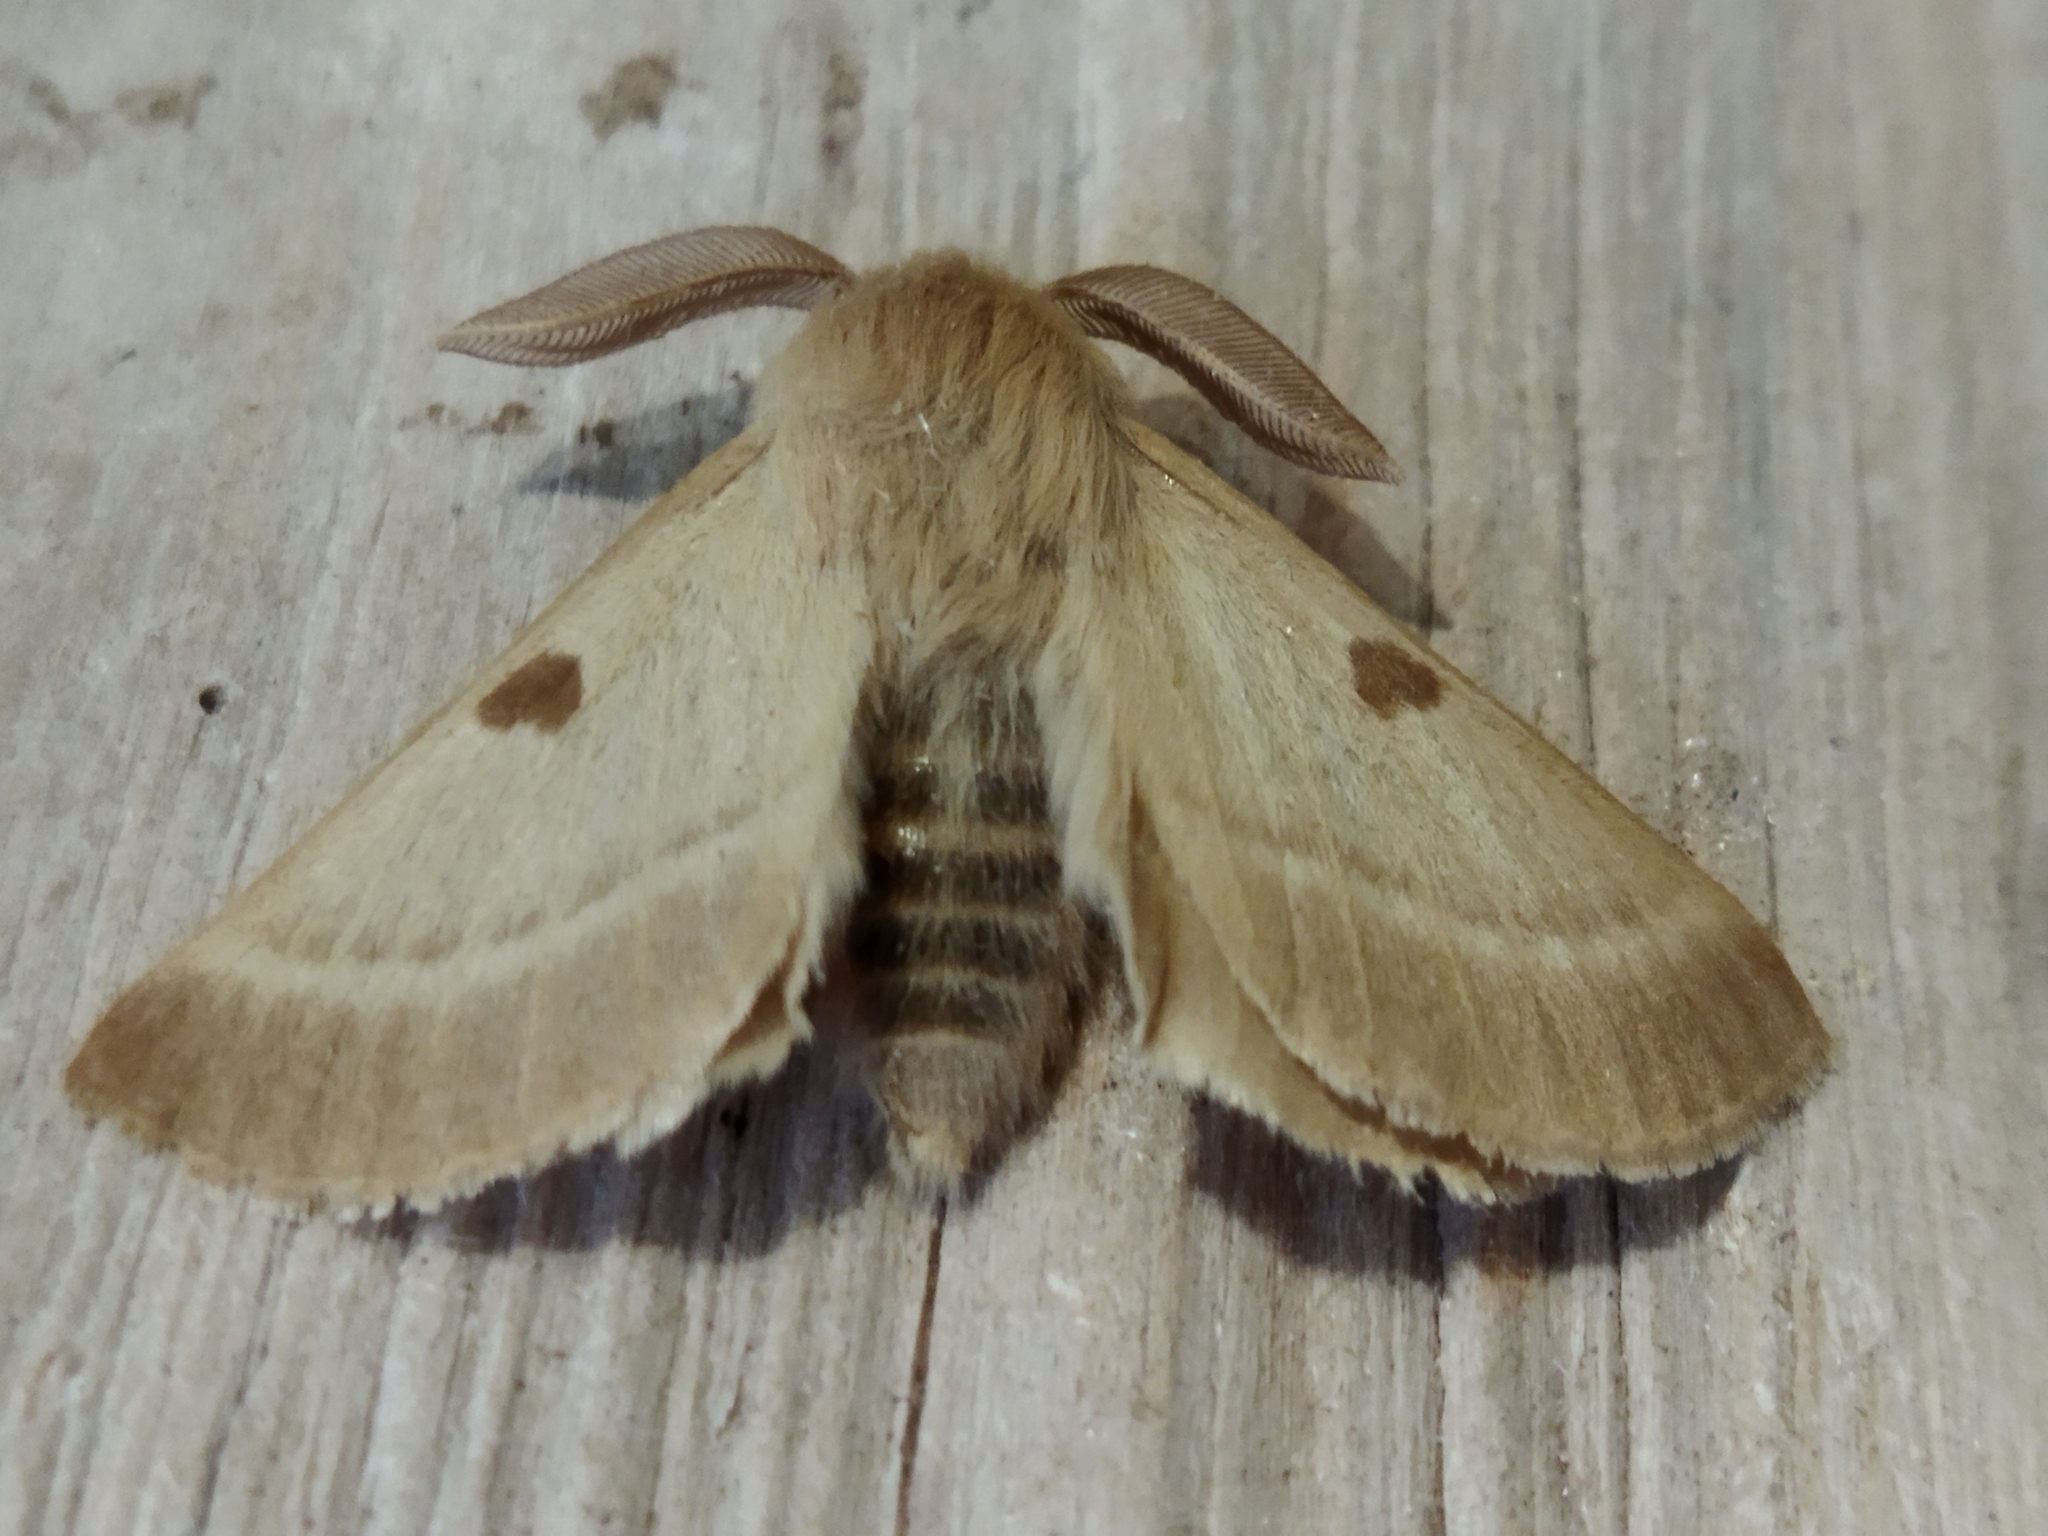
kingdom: Animalia
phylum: Arthropoda
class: Insecta
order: Lepidoptera
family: Brahmaeidae
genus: Lemonia
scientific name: Lemonia balcanica
